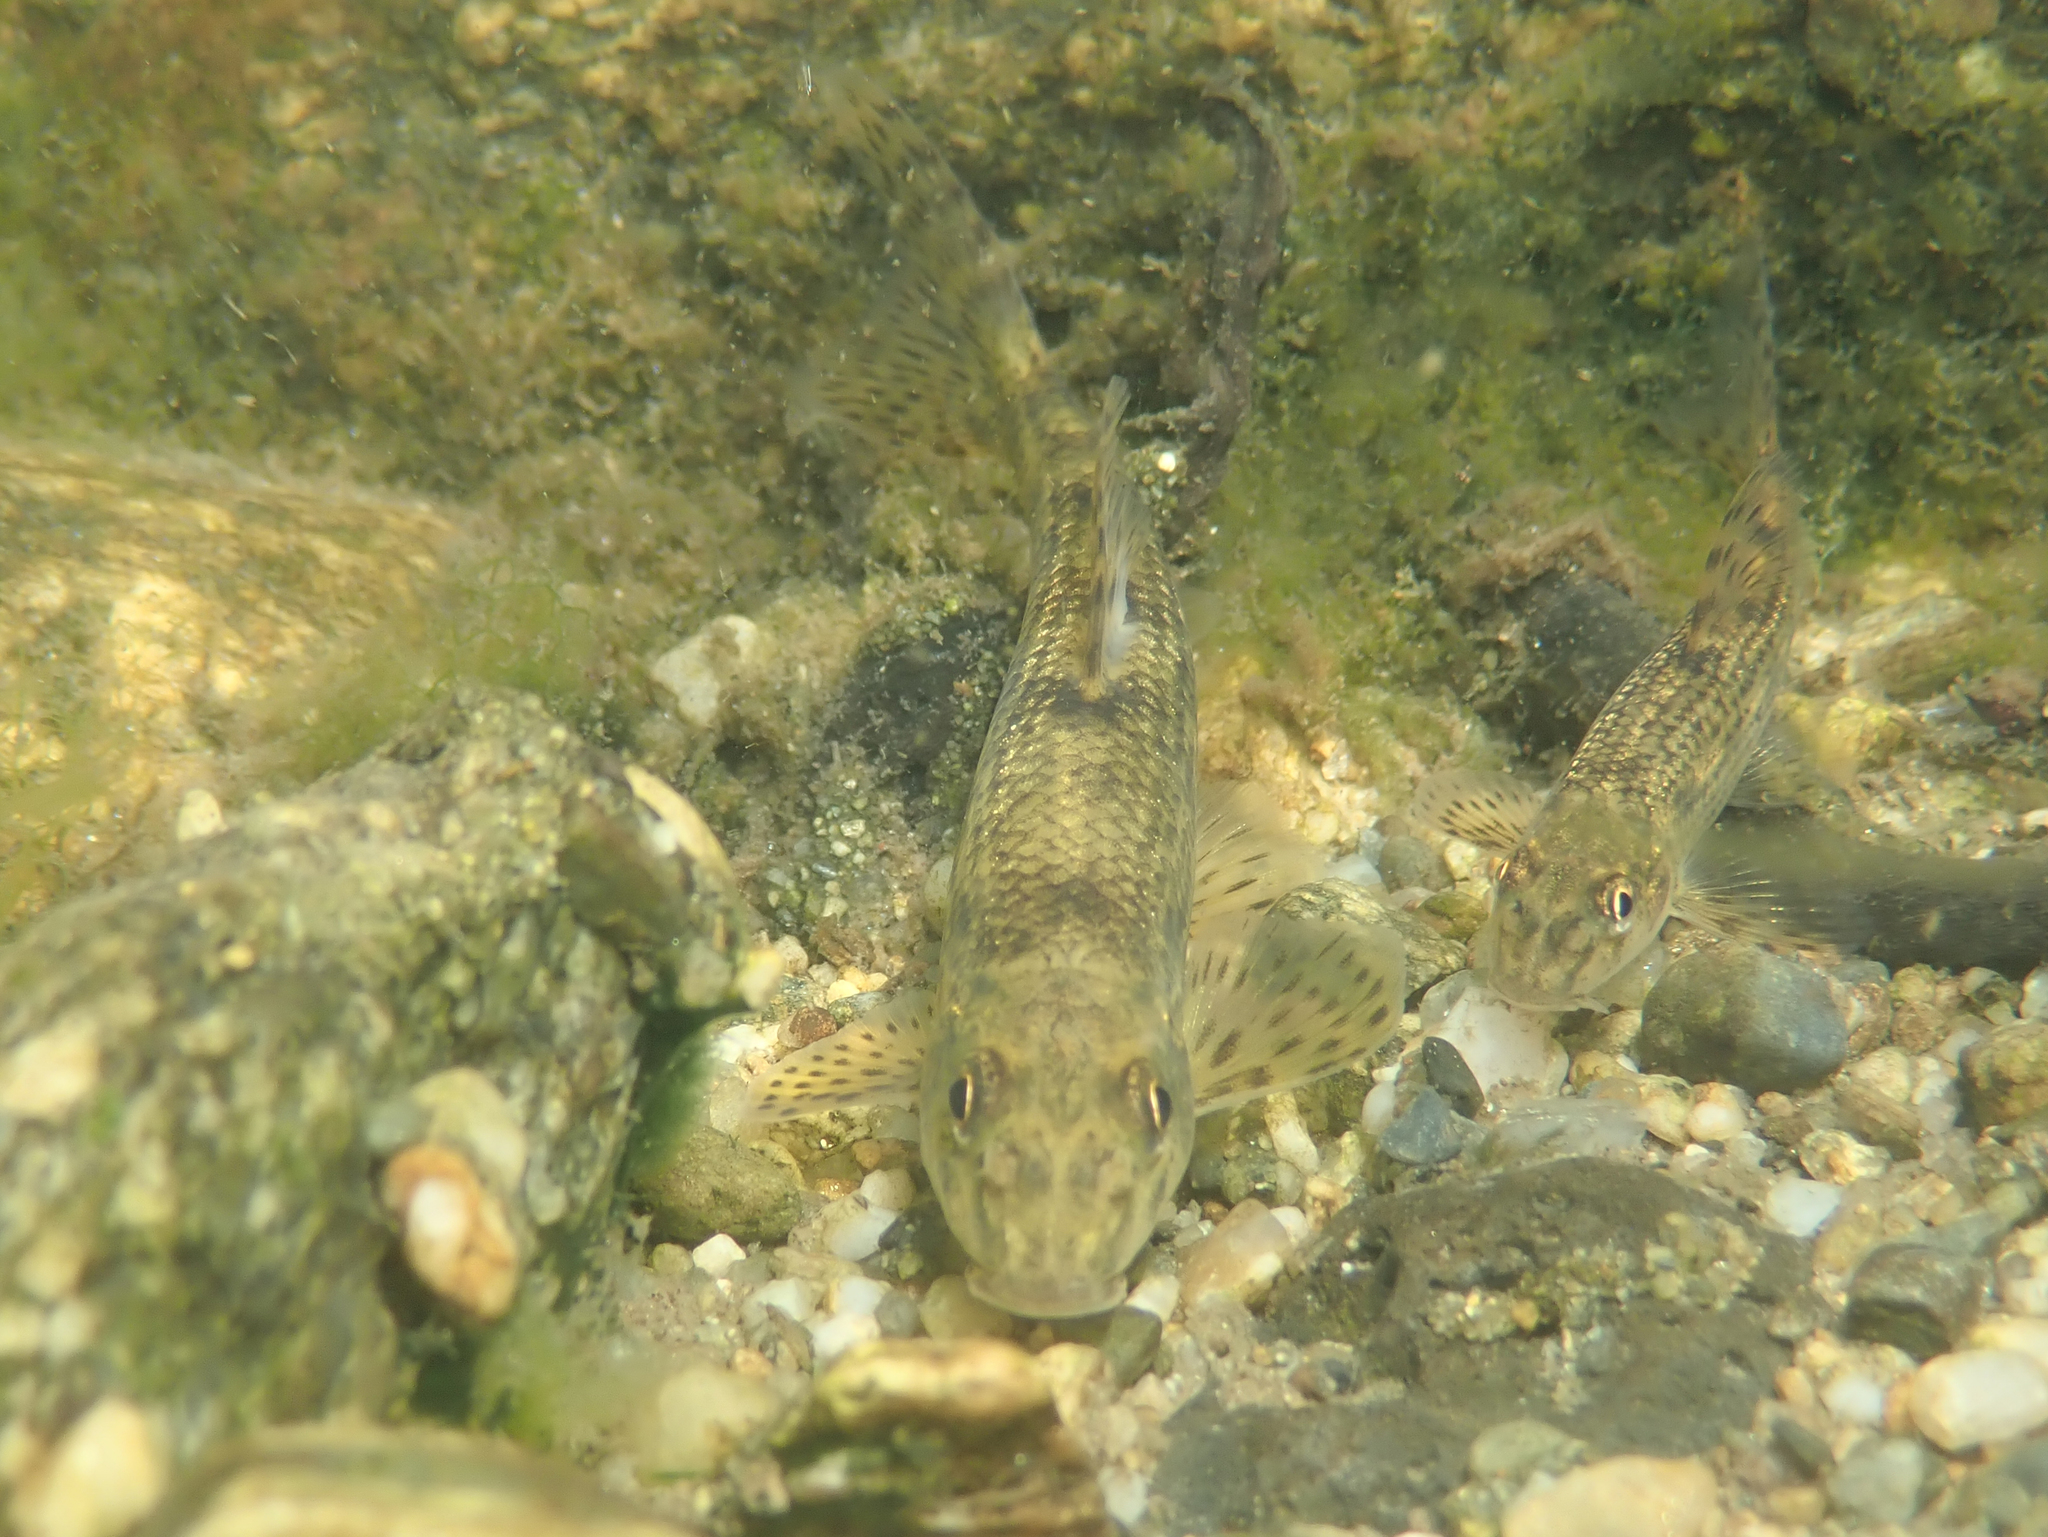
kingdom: Animalia
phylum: Chordata
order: Cypriniformes
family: Cyprinidae
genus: Gobio
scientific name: Gobio occitaniae
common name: Languedoc gudgeon
